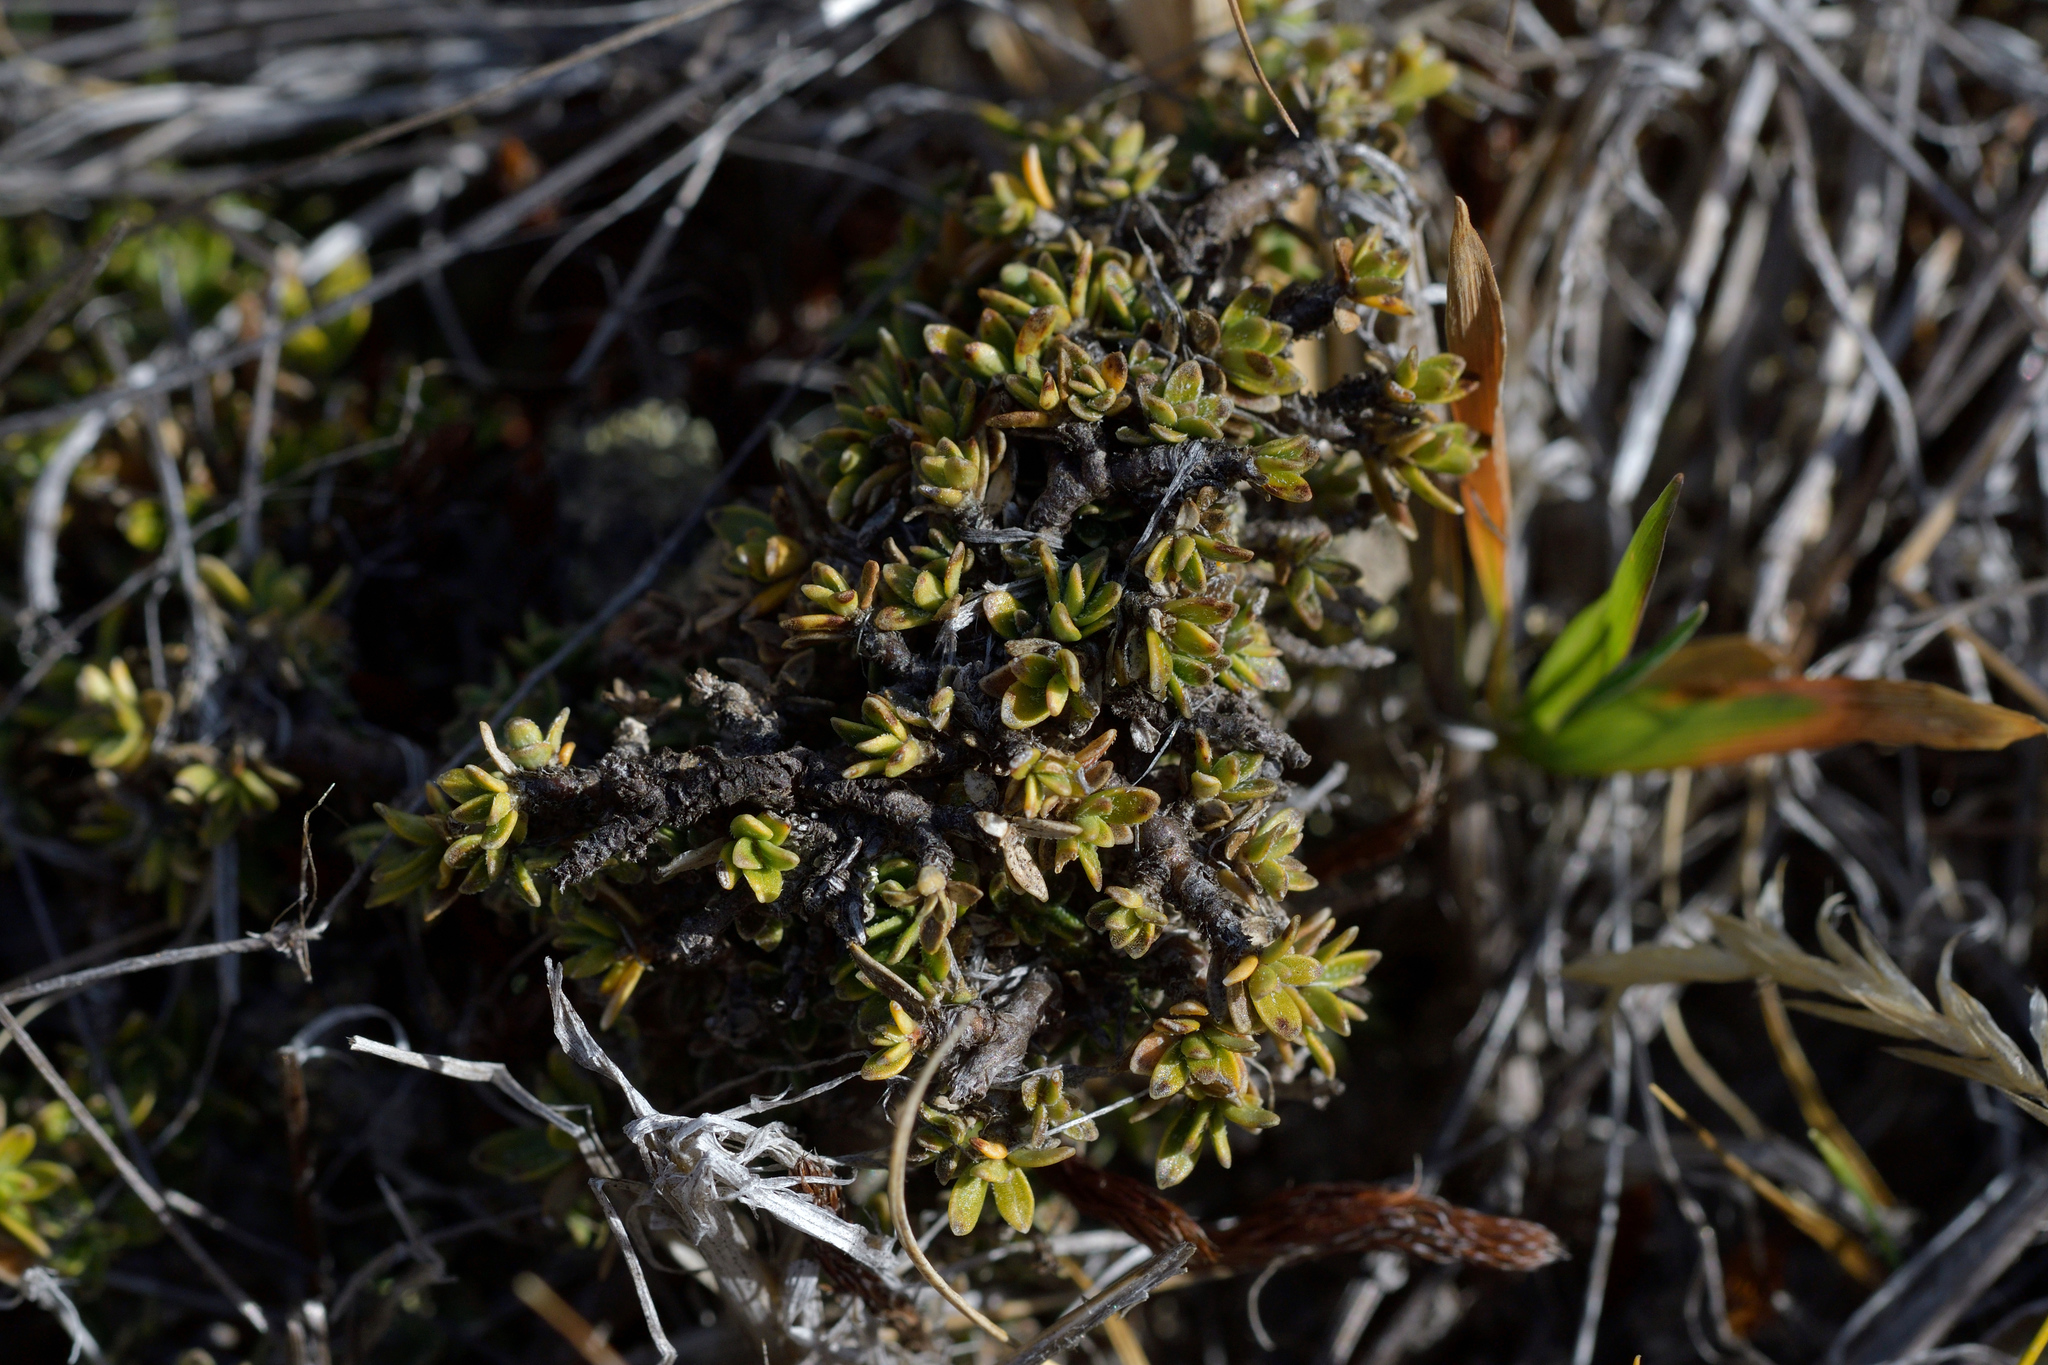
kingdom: Plantae
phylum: Tracheophyta
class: Magnoliopsida
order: Gentianales
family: Rubiaceae
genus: Coprosma
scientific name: Coprosma petriei
